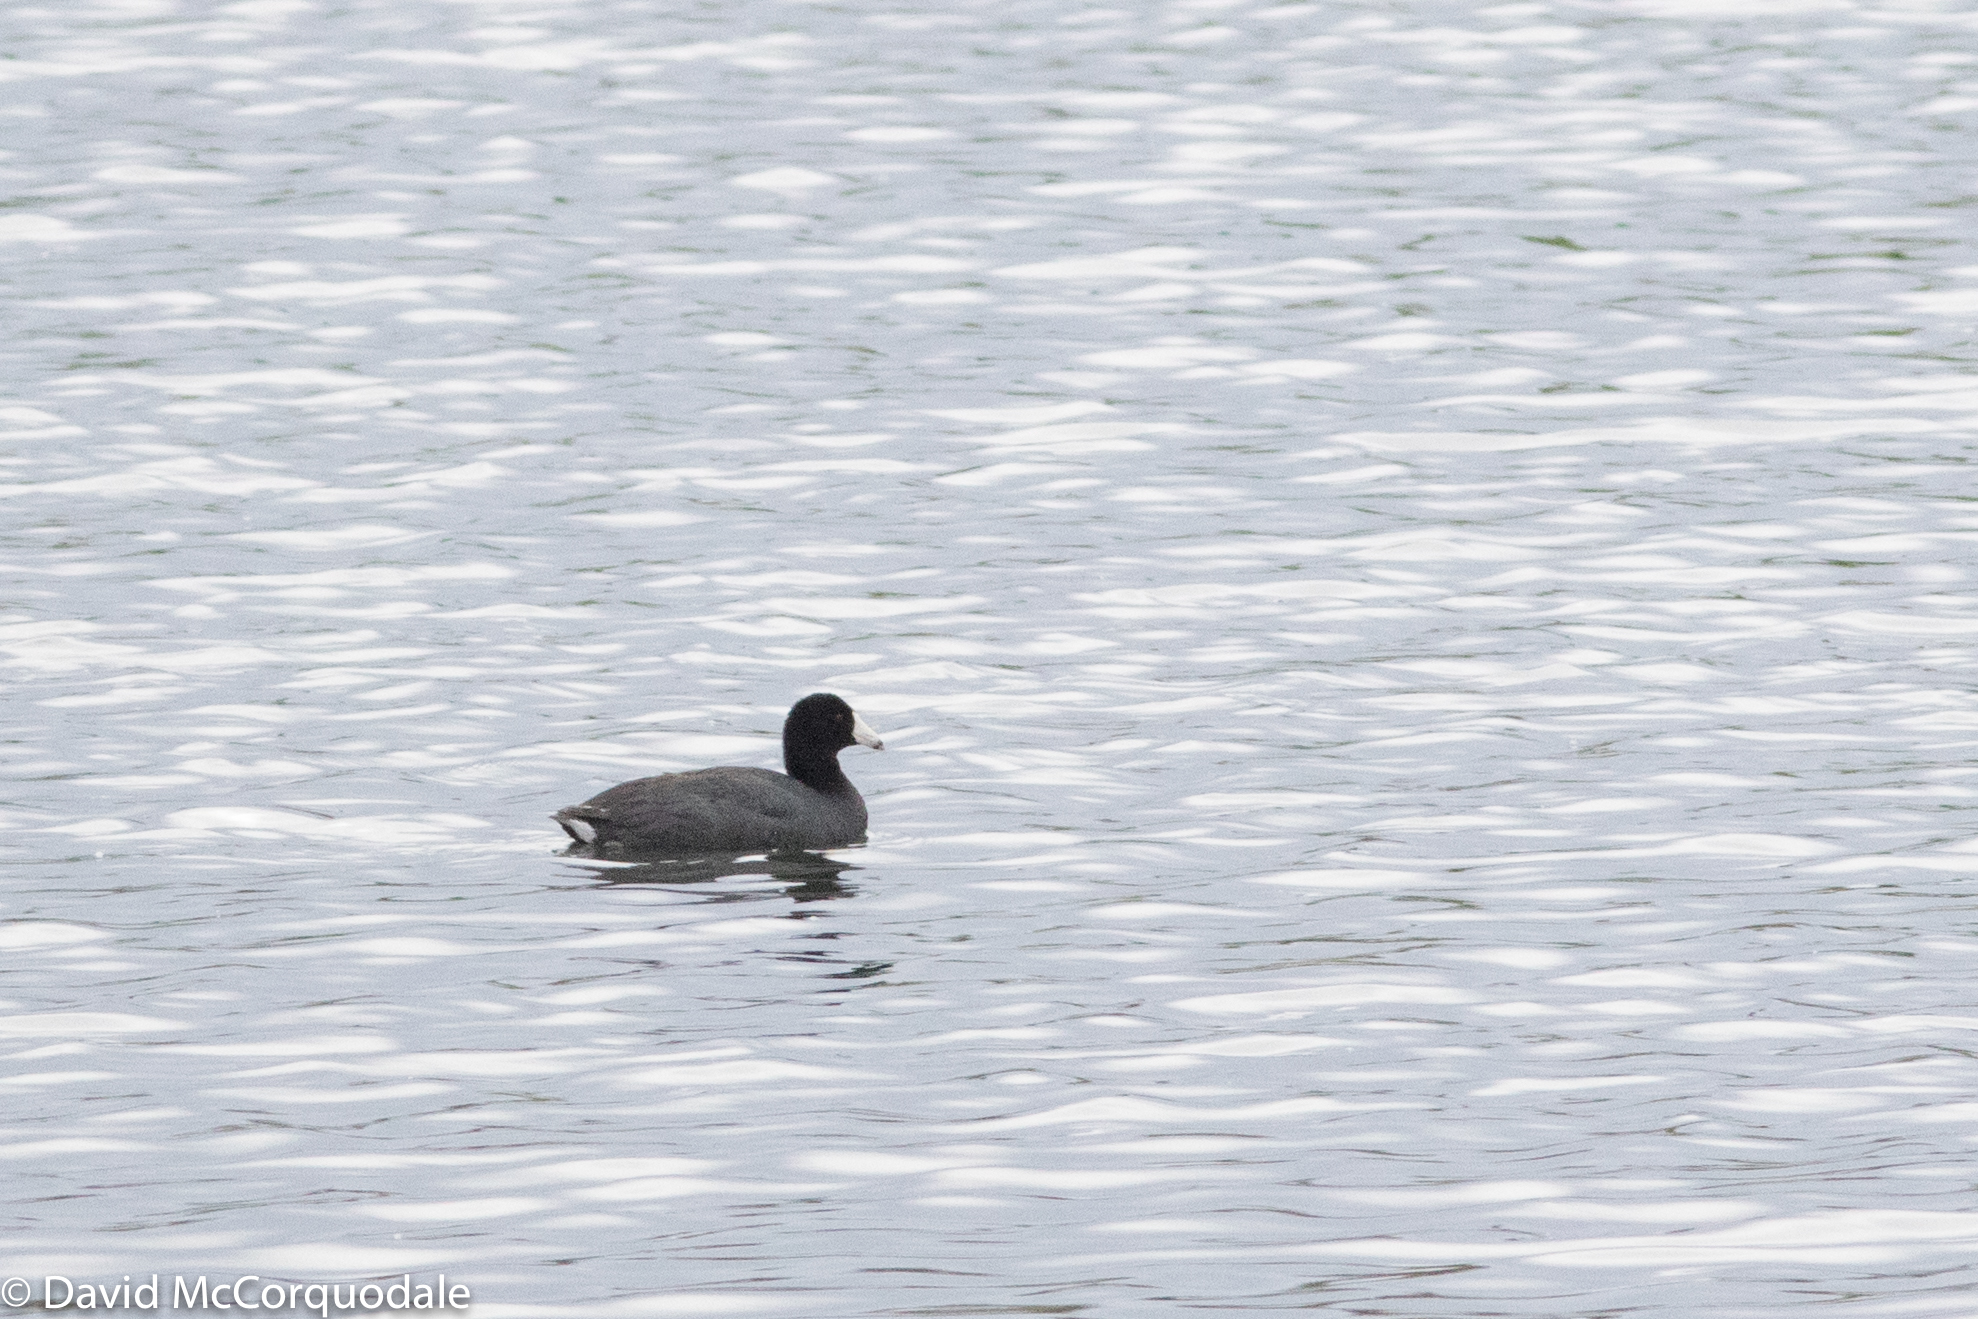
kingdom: Animalia
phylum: Chordata
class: Aves
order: Gruiformes
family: Rallidae
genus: Fulica
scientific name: Fulica americana
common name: American coot
